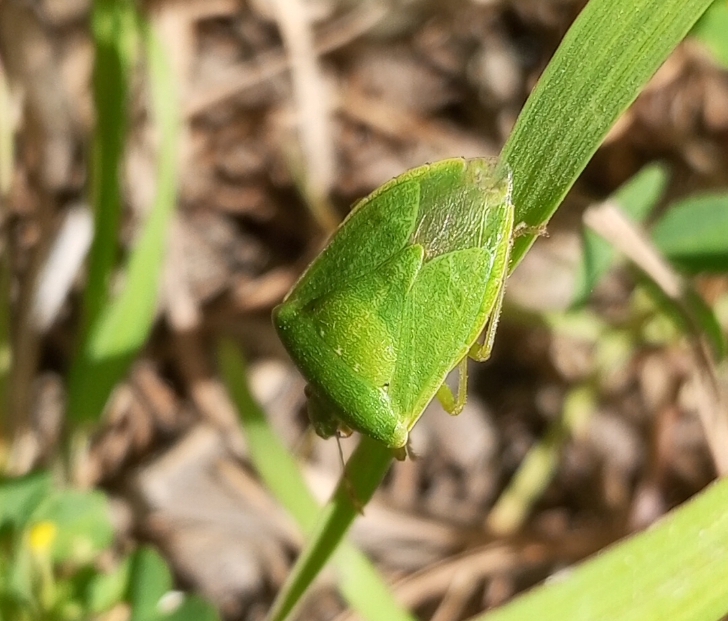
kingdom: Animalia
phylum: Arthropoda
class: Insecta
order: Hemiptera
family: Pentatomidae
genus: Nezara
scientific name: Nezara viridula
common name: Southern green stink bug
